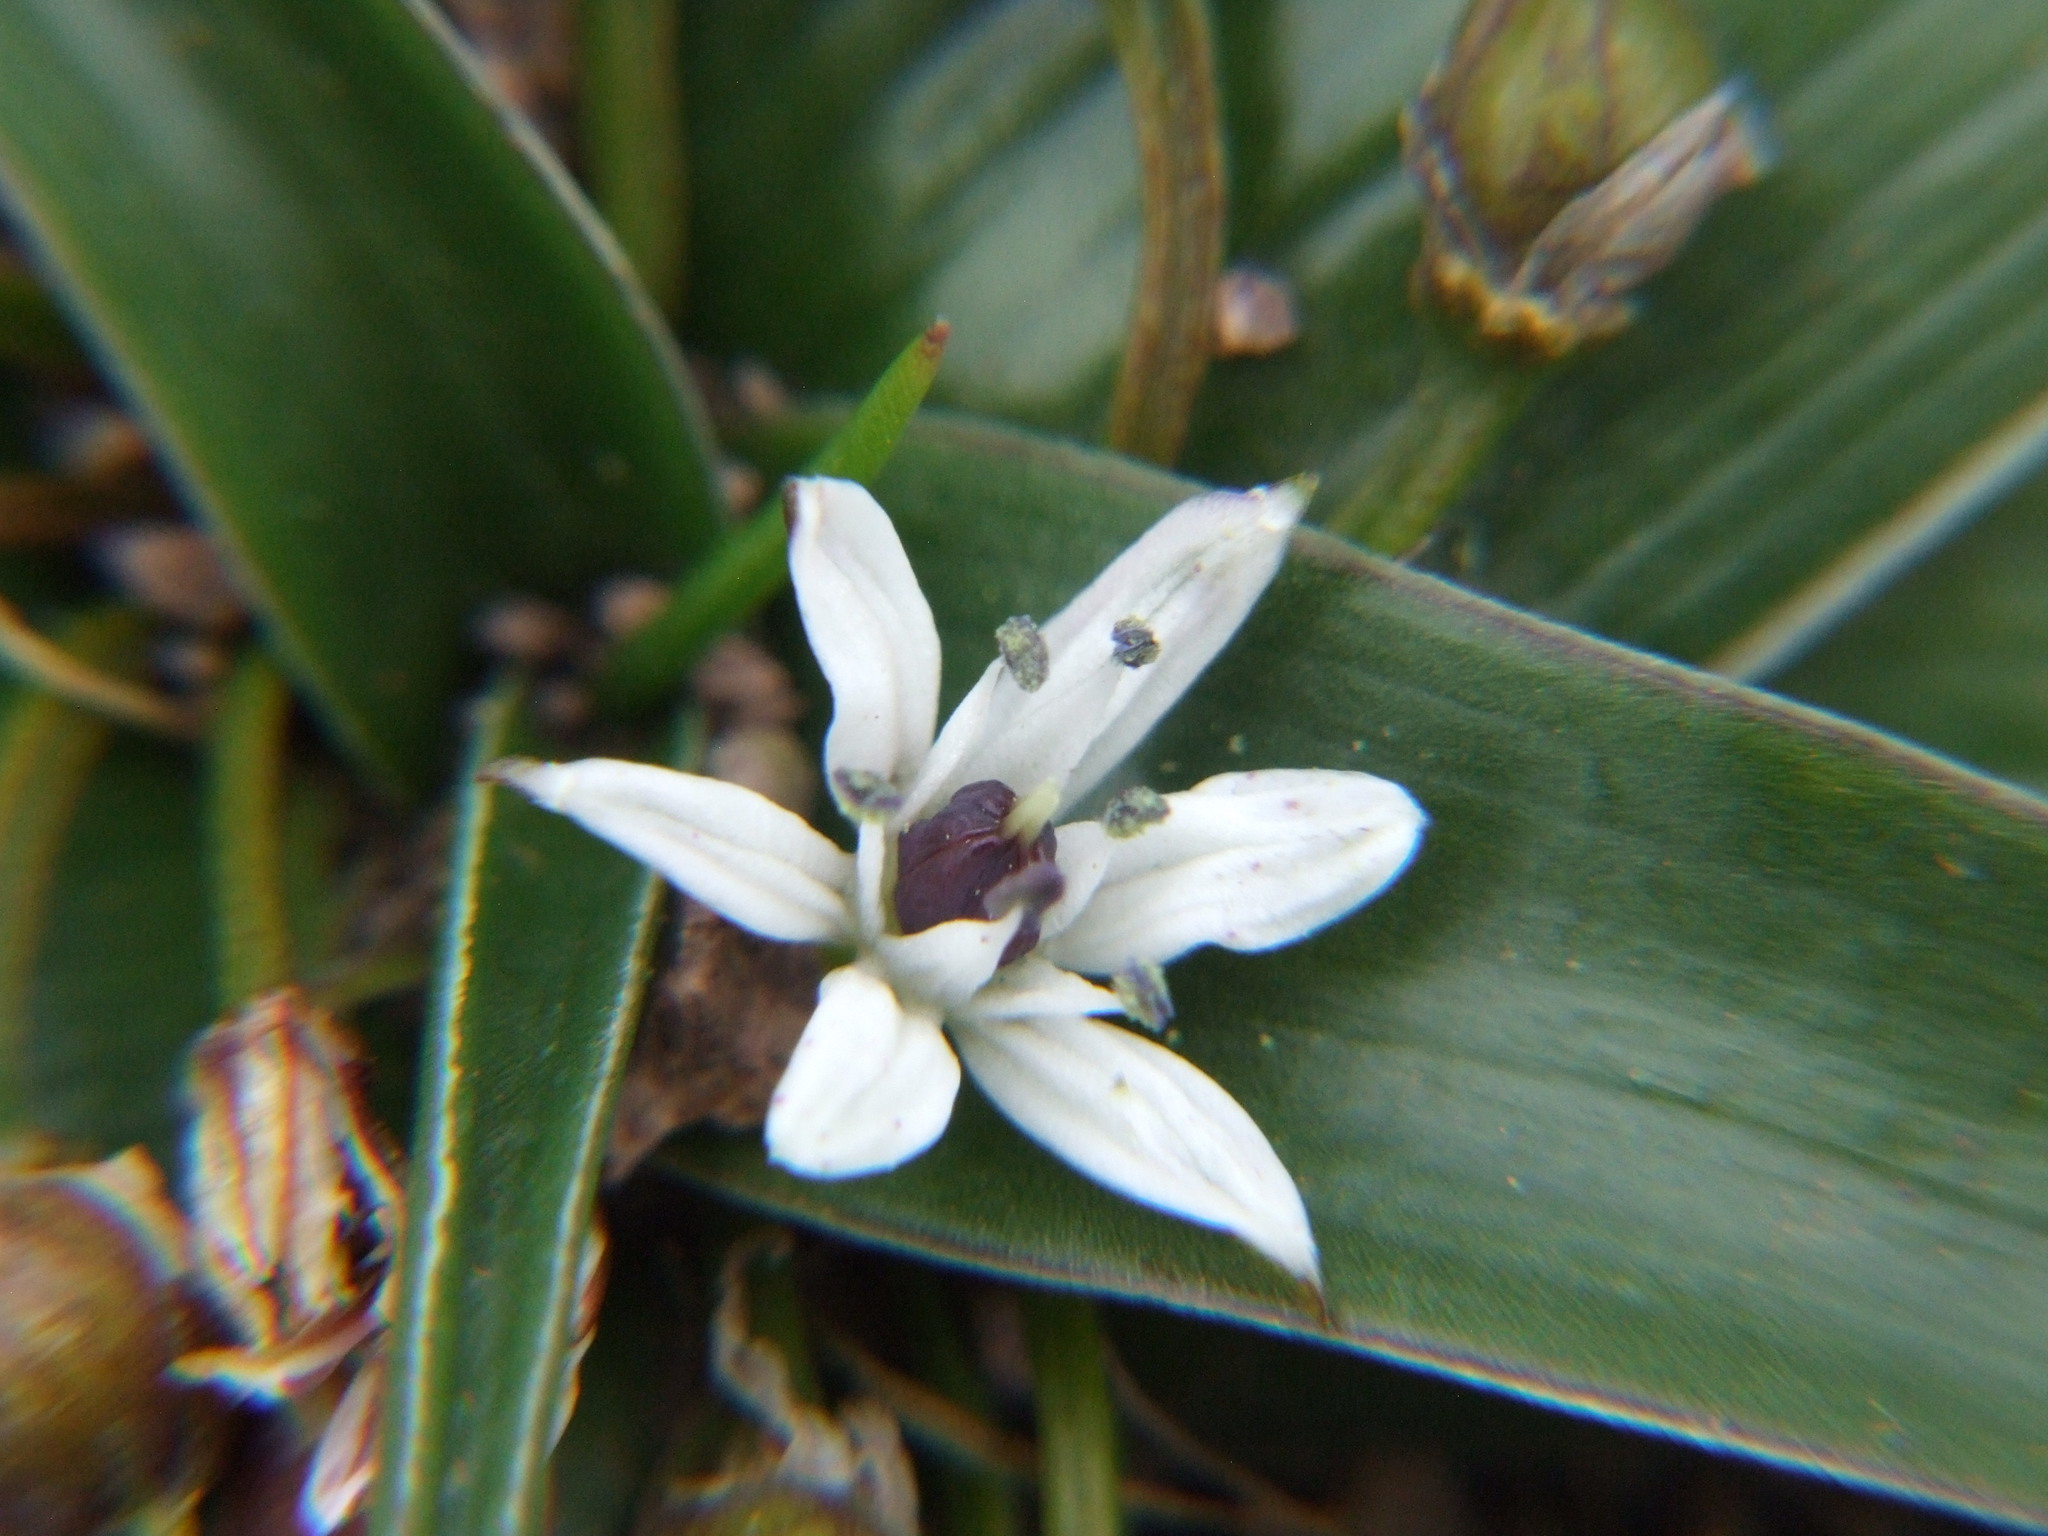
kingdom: Plantae
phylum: Tracheophyta
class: Liliopsida
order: Asparagales
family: Asparagaceae
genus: Oziroe
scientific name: Oziroe acaulis
